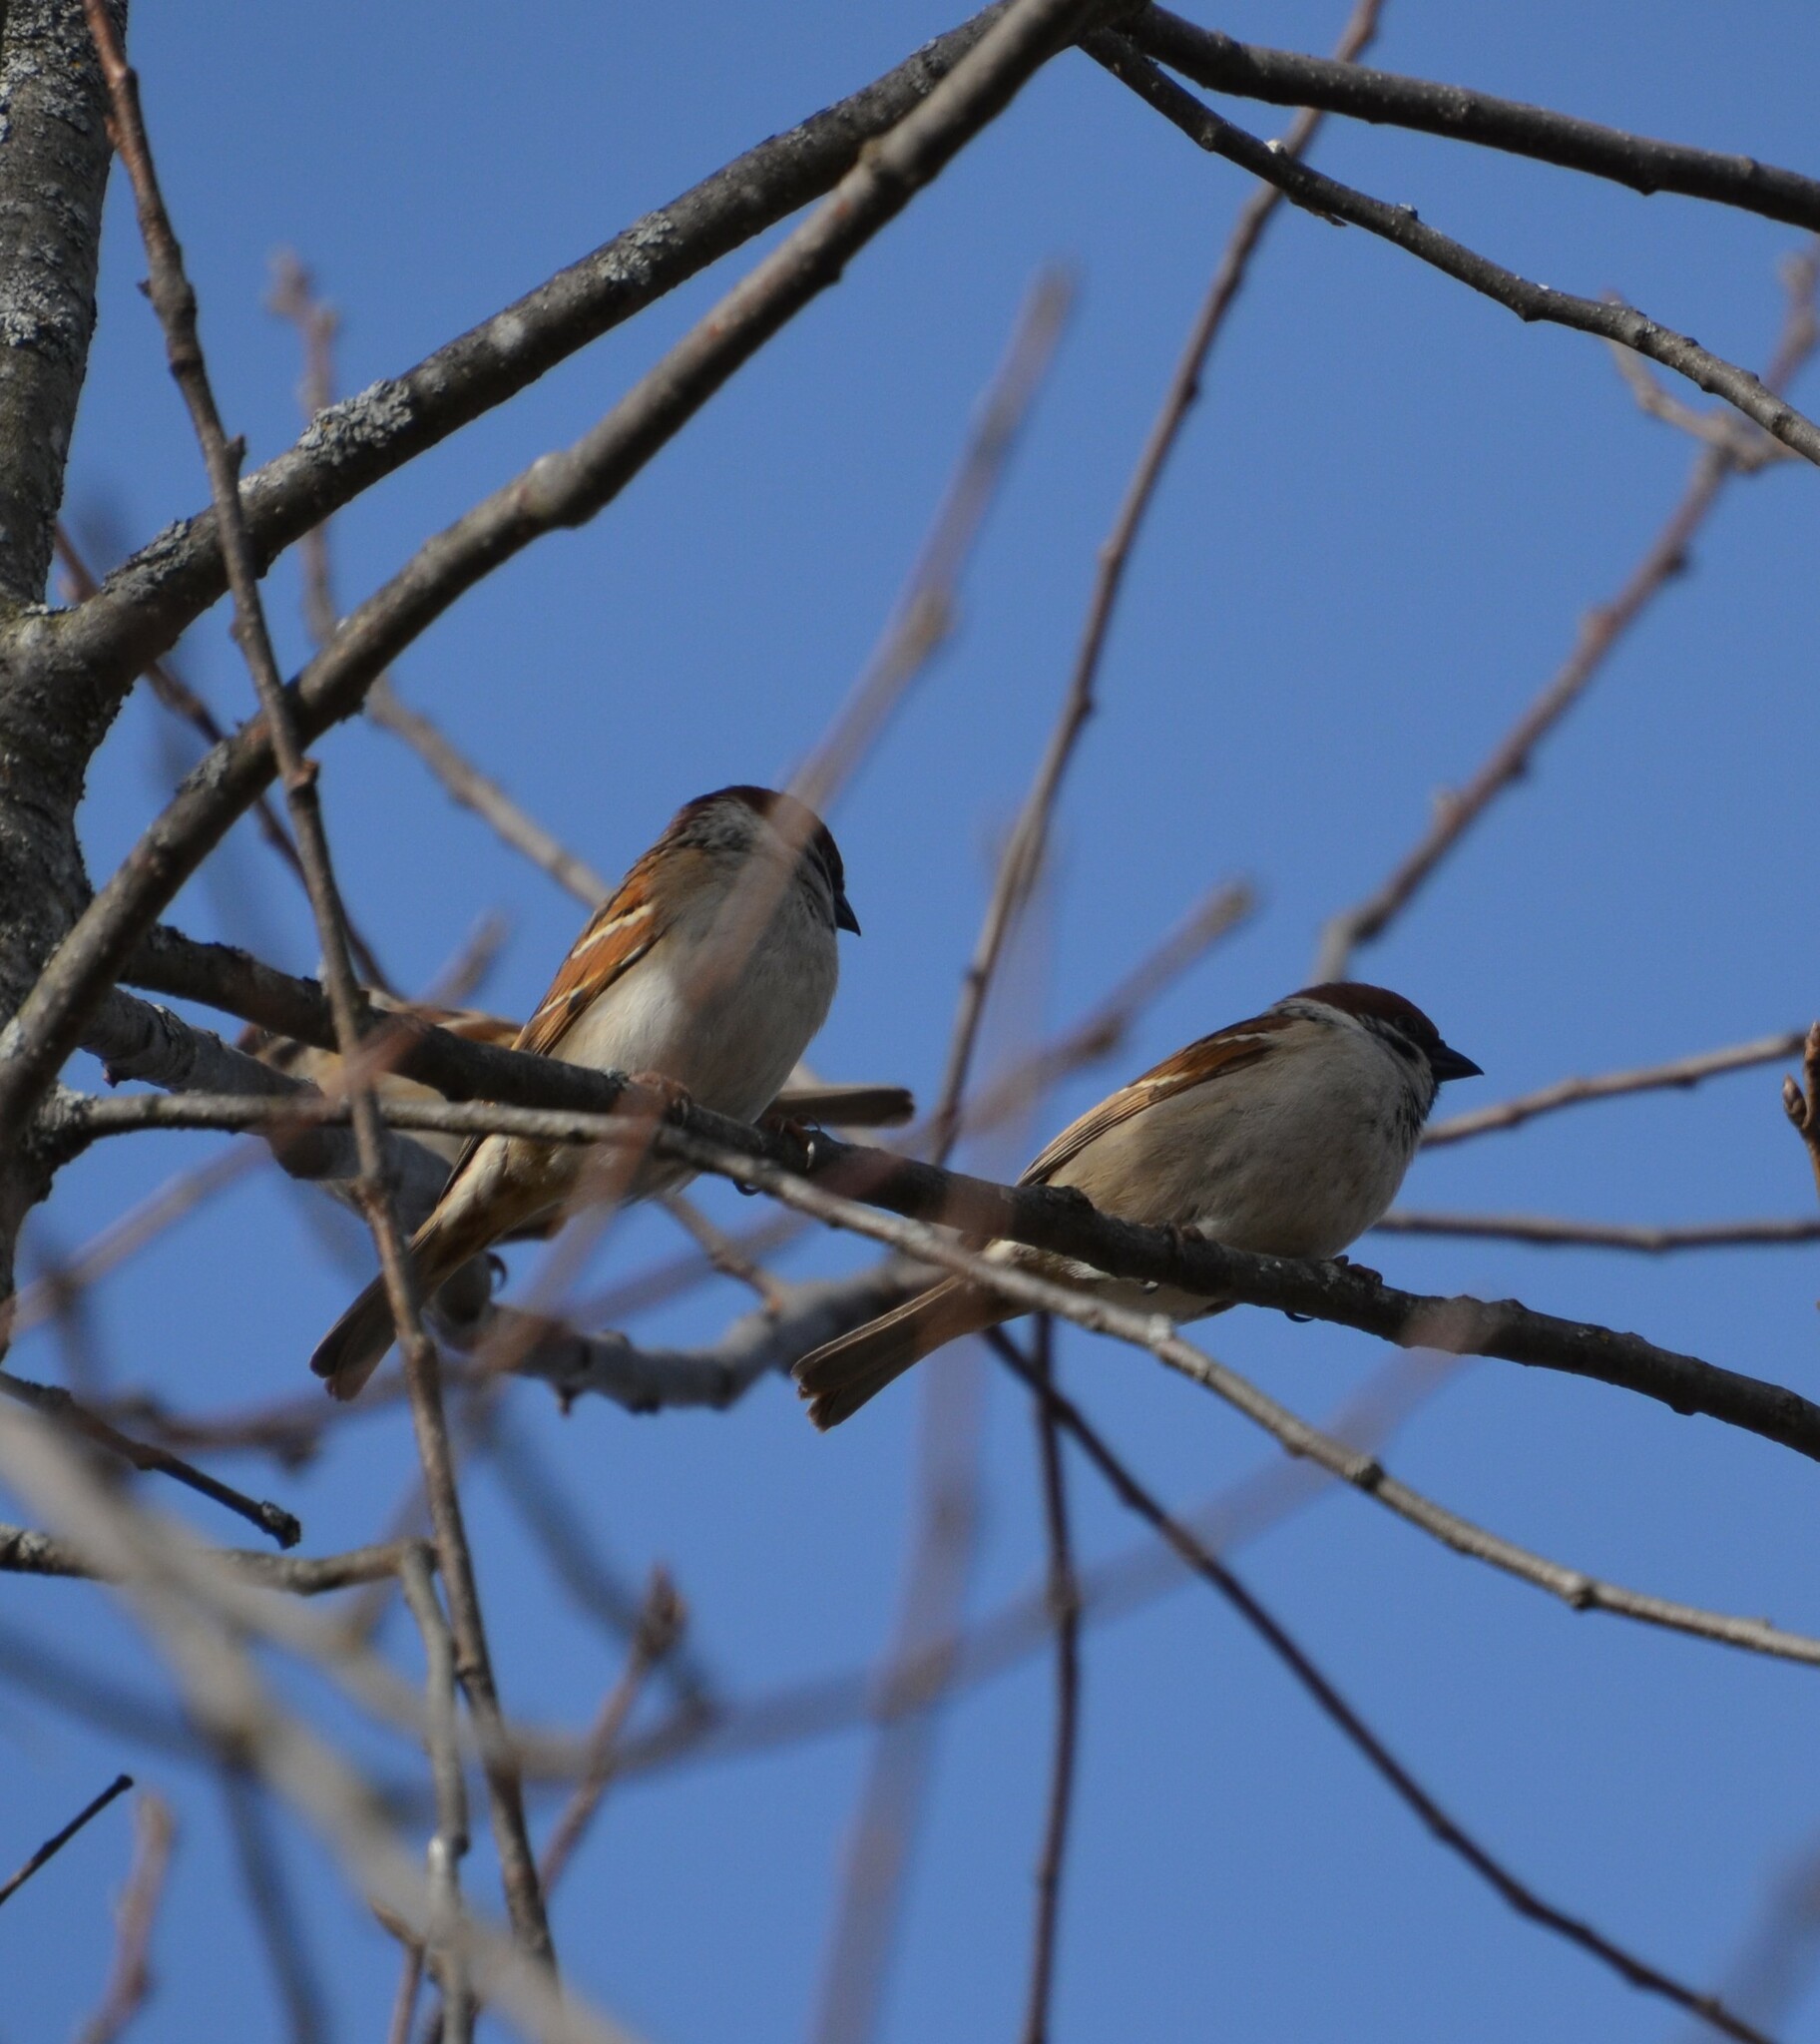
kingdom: Animalia
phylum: Chordata
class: Aves
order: Passeriformes
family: Passeridae
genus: Passer
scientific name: Passer montanus
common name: Eurasian tree sparrow
